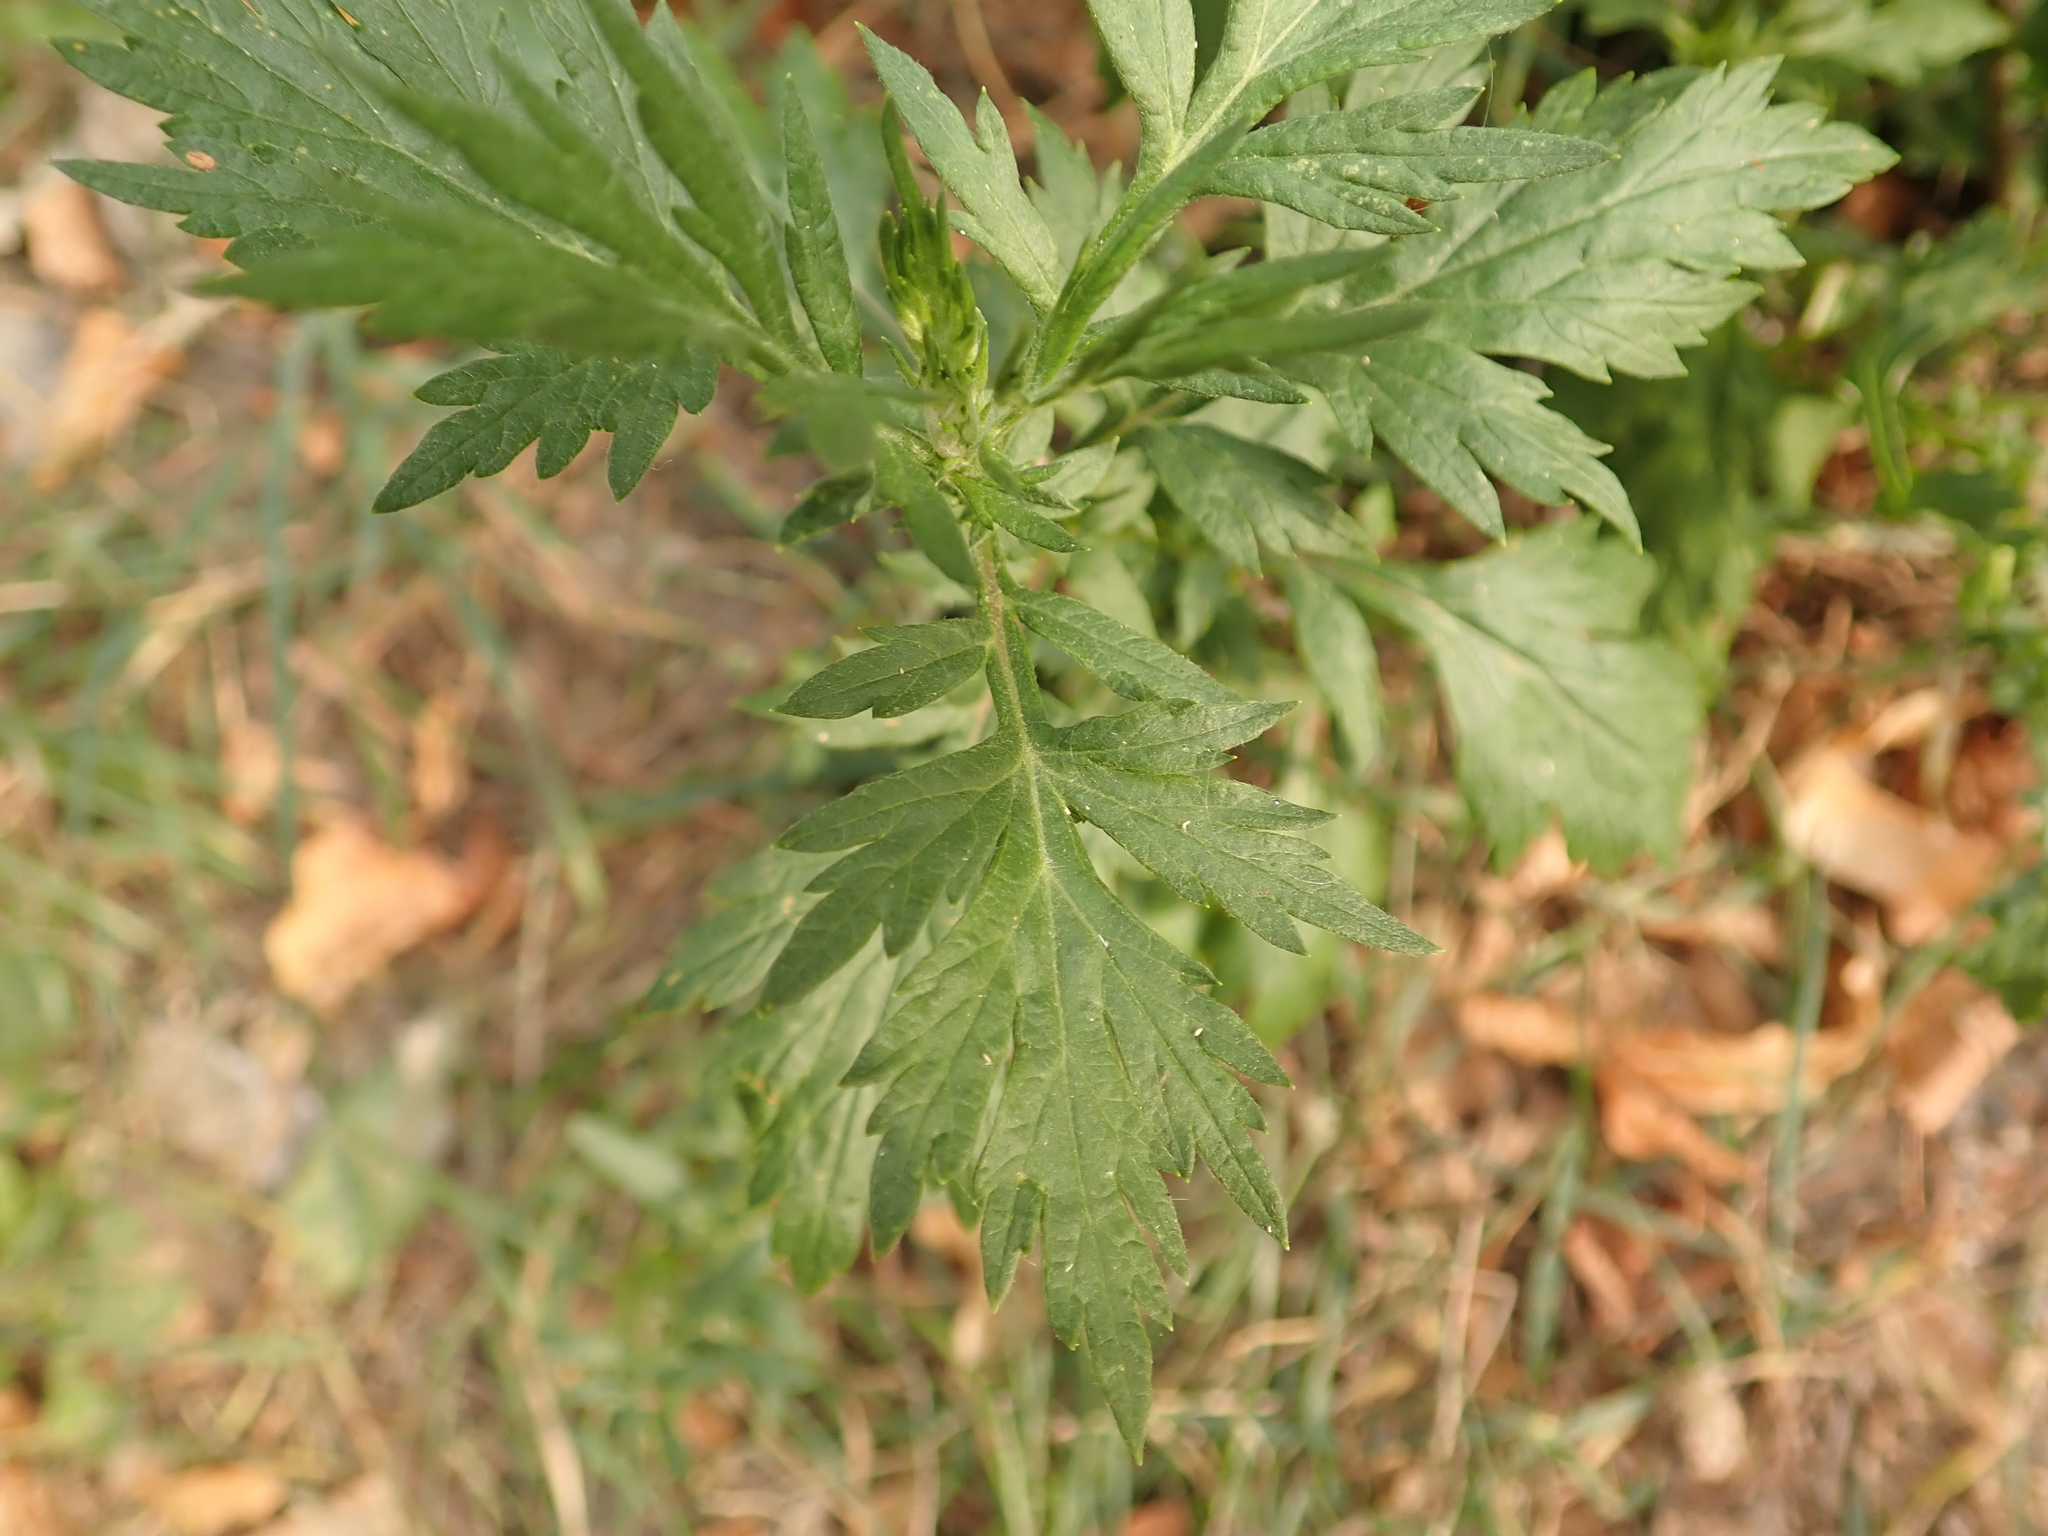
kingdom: Plantae
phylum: Tracheophyta
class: Magnoliopsida
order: Asterales
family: Asteraceae
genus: Artemisia
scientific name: Artemisia vulgaris
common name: Mugwort
